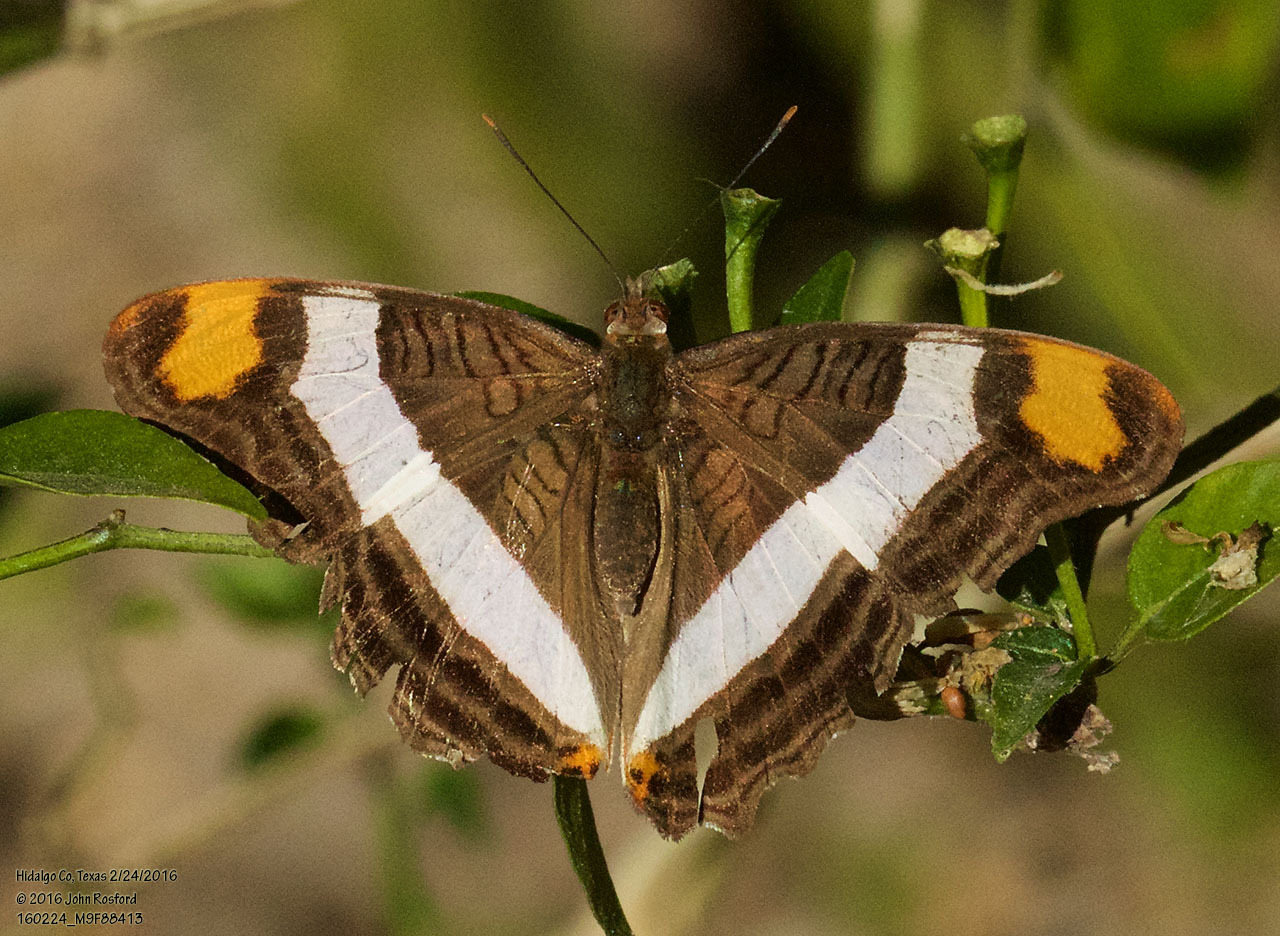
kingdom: Animalia
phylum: Arthropoda
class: Insecta
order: Lepidoptera
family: Nymphalidae
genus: Limenitis
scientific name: Limenitis fessonia
